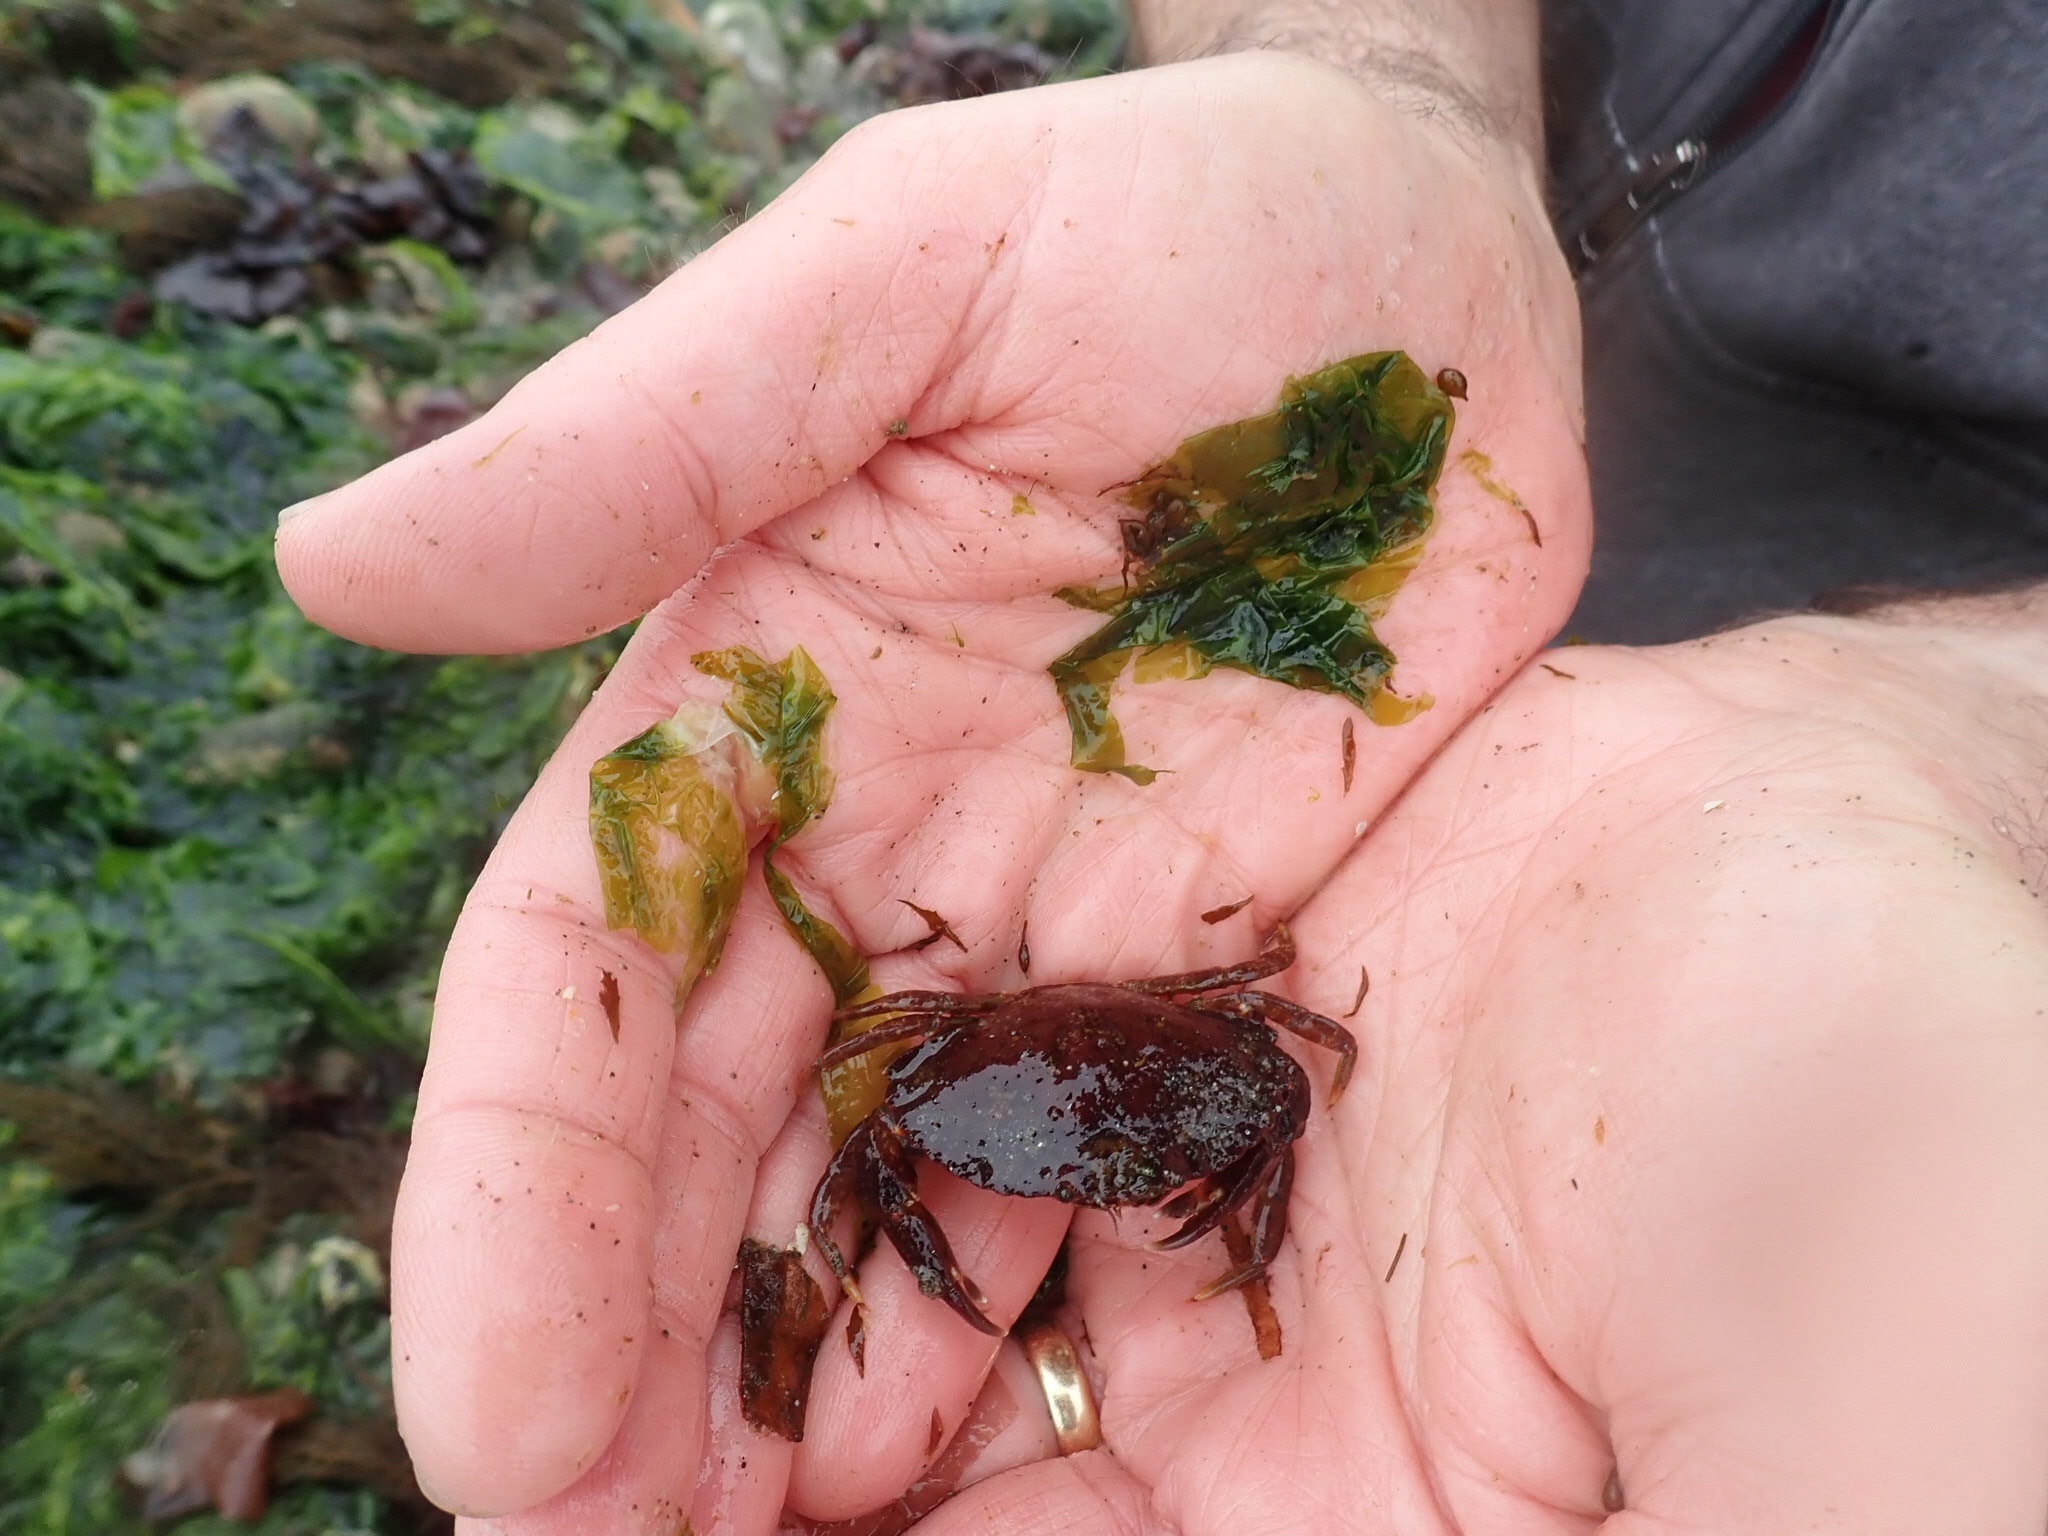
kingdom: Animalia
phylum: Arthropoda
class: Malacostraca
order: Decapoda
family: Cancridae
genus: Cancer
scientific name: Cancer productus
